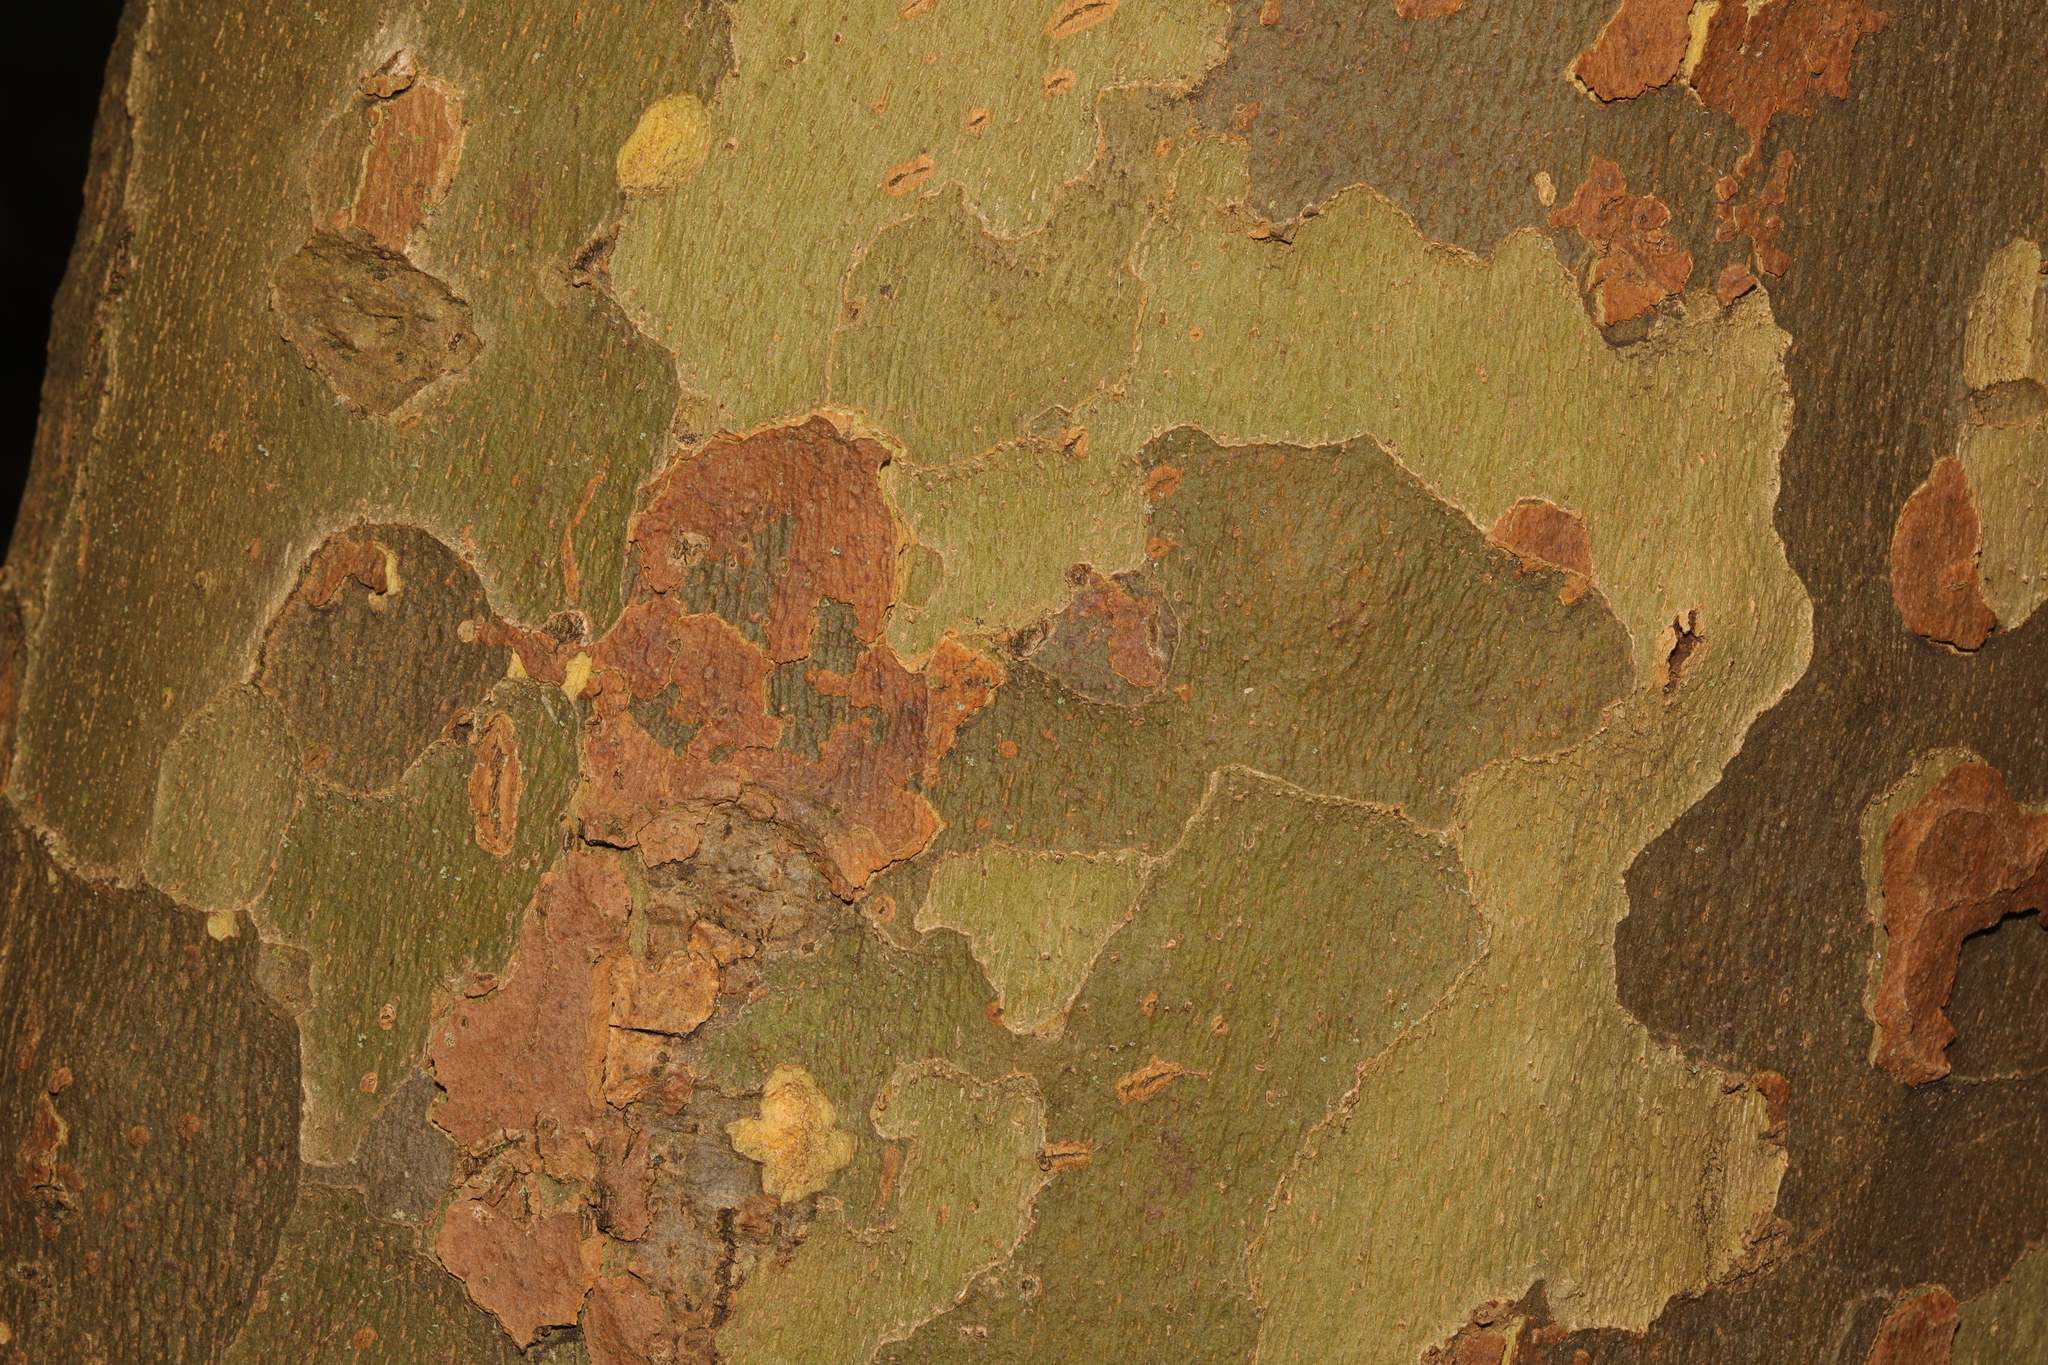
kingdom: Plantae
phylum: Tracheophyta
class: Magnoliopsida
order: Proteales
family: Platanaceae
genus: Platanus
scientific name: Platanus hispanica
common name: London plane
